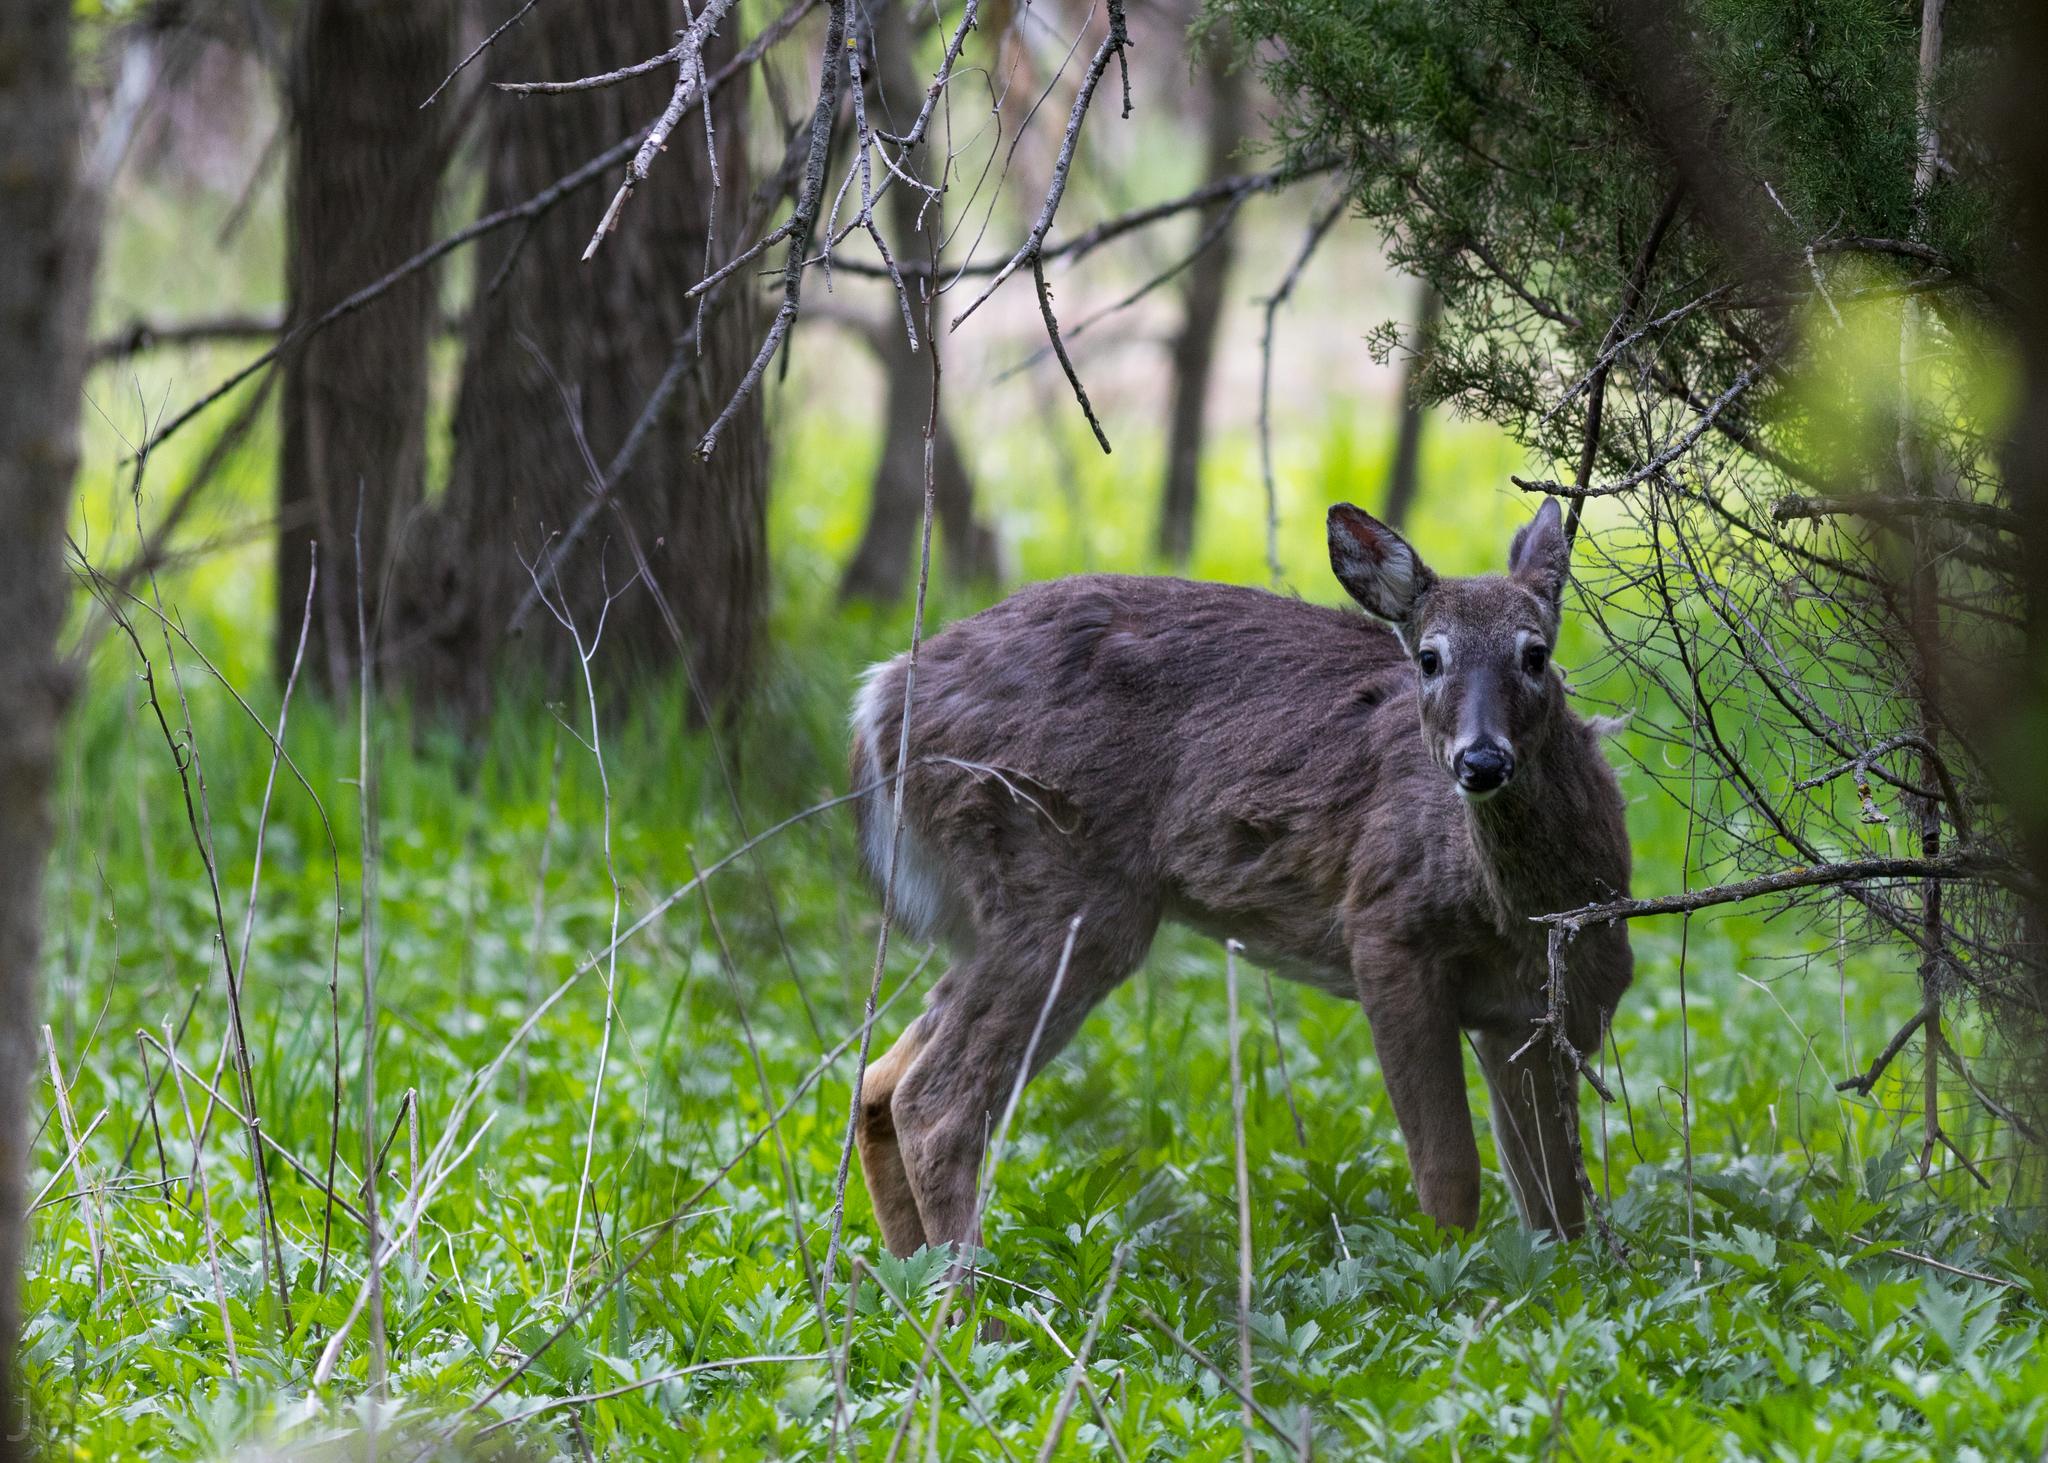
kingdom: Animalia
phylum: Chordata
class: Mammalia
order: Artiodactyla
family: Cervidae
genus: Odocoileus
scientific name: Odocoileus virginianus
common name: White-tailed deer
